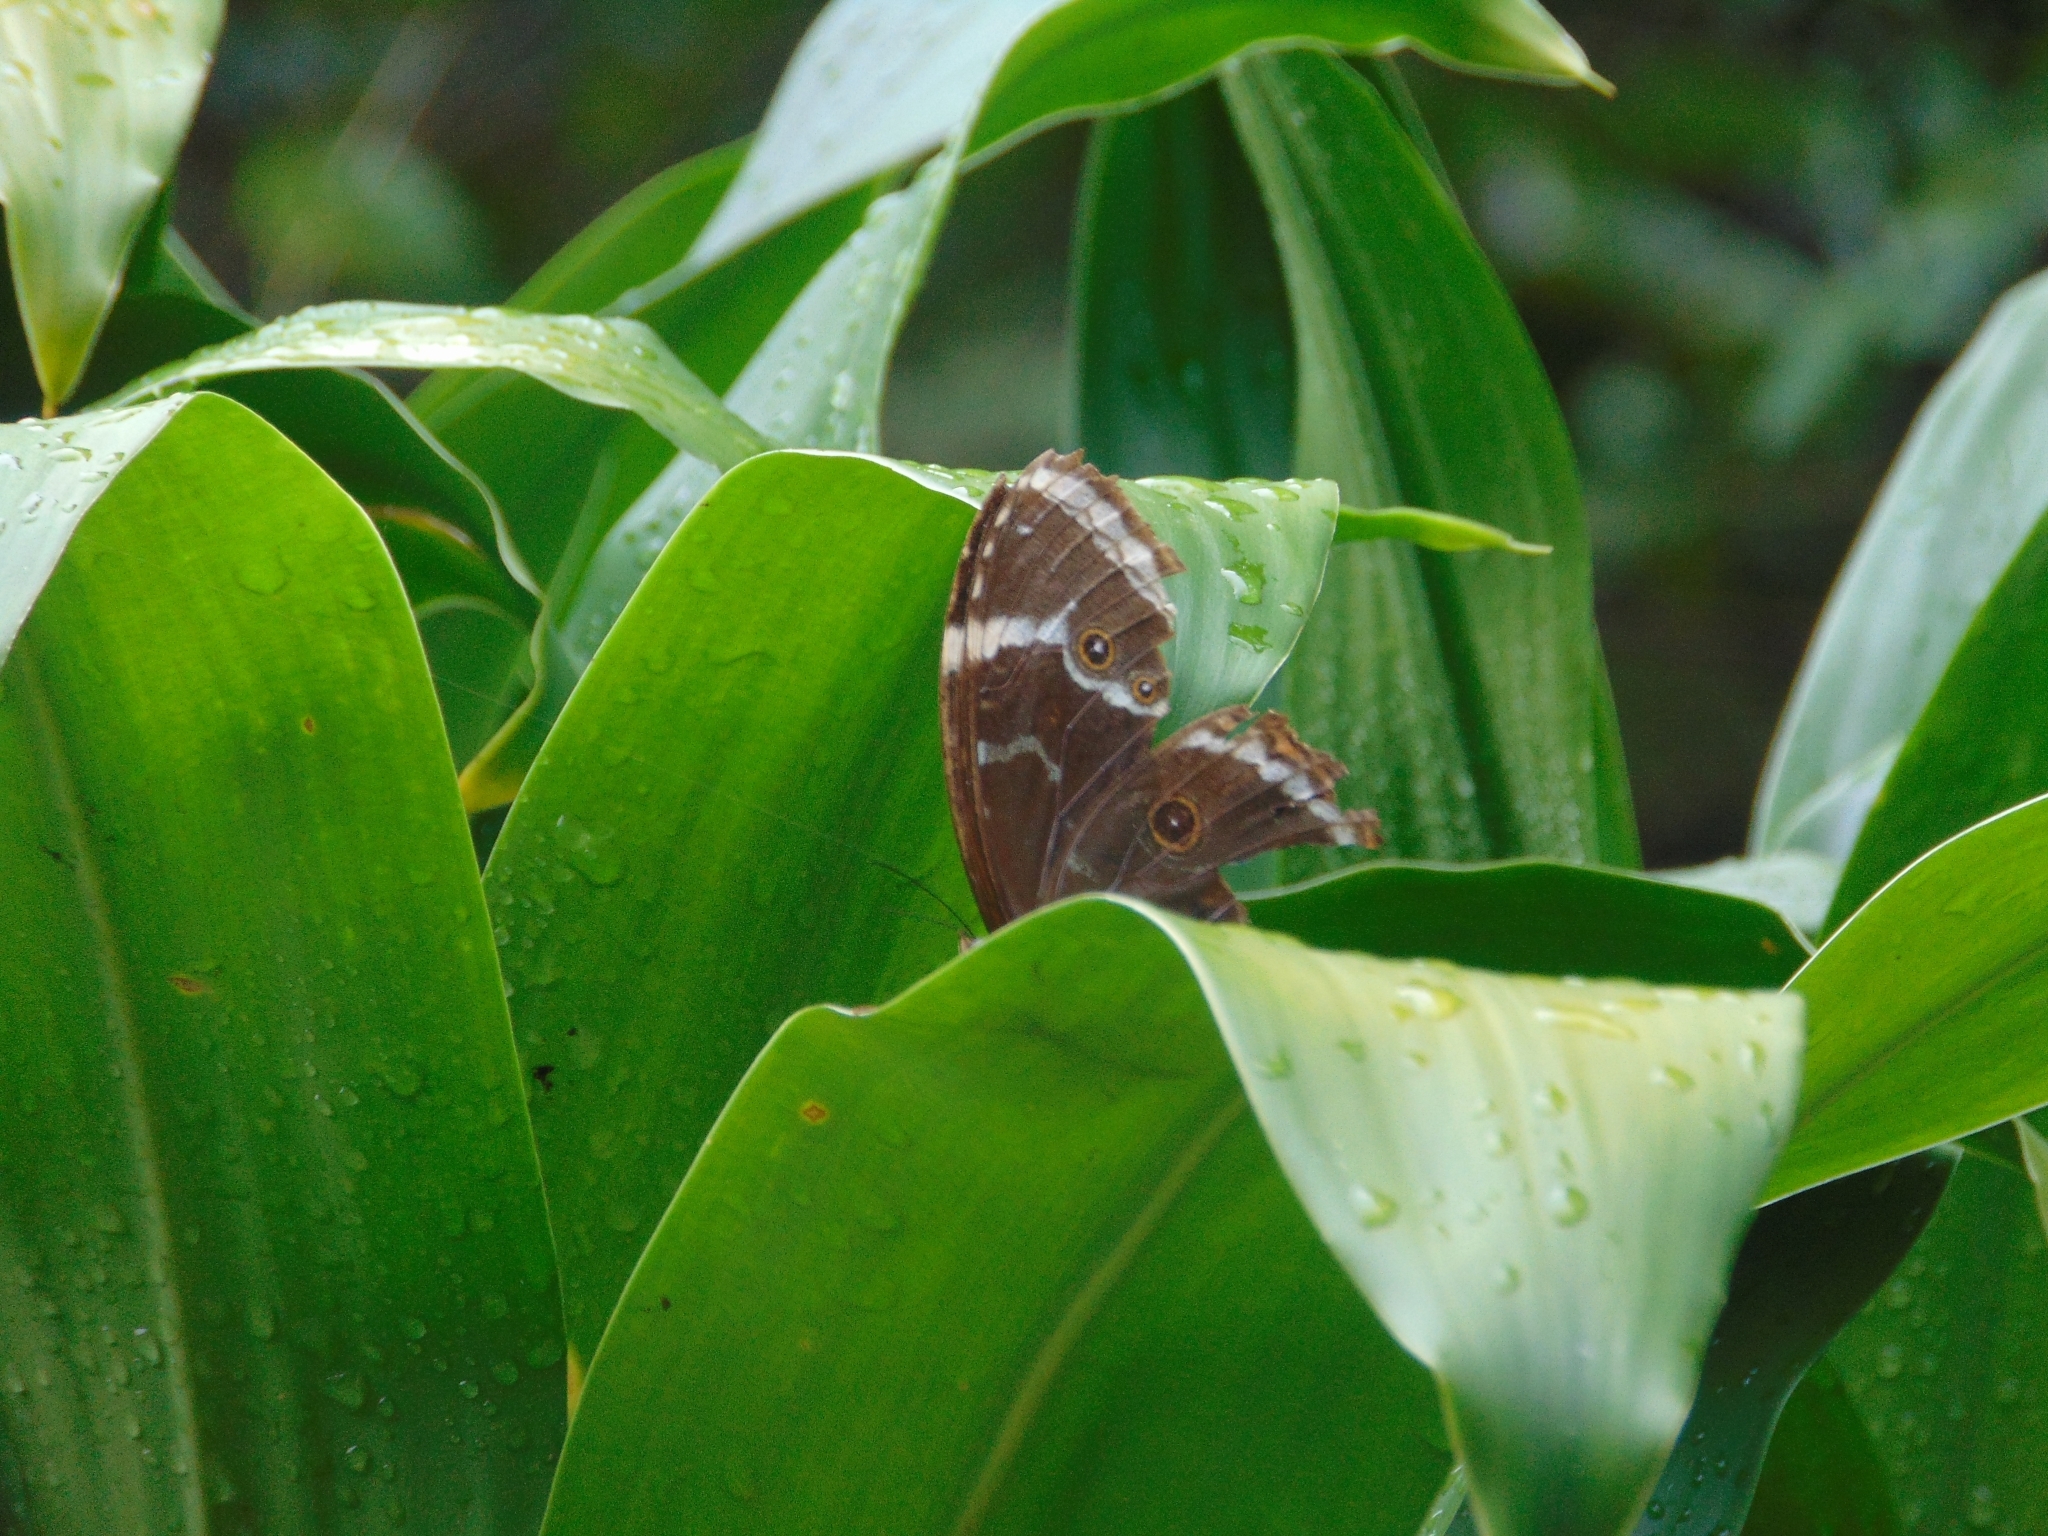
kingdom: Animalia
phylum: Arthropoda
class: Insecta
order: Lepidoptera
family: Nymphalidae
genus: Morpho
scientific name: Morpho helenor
